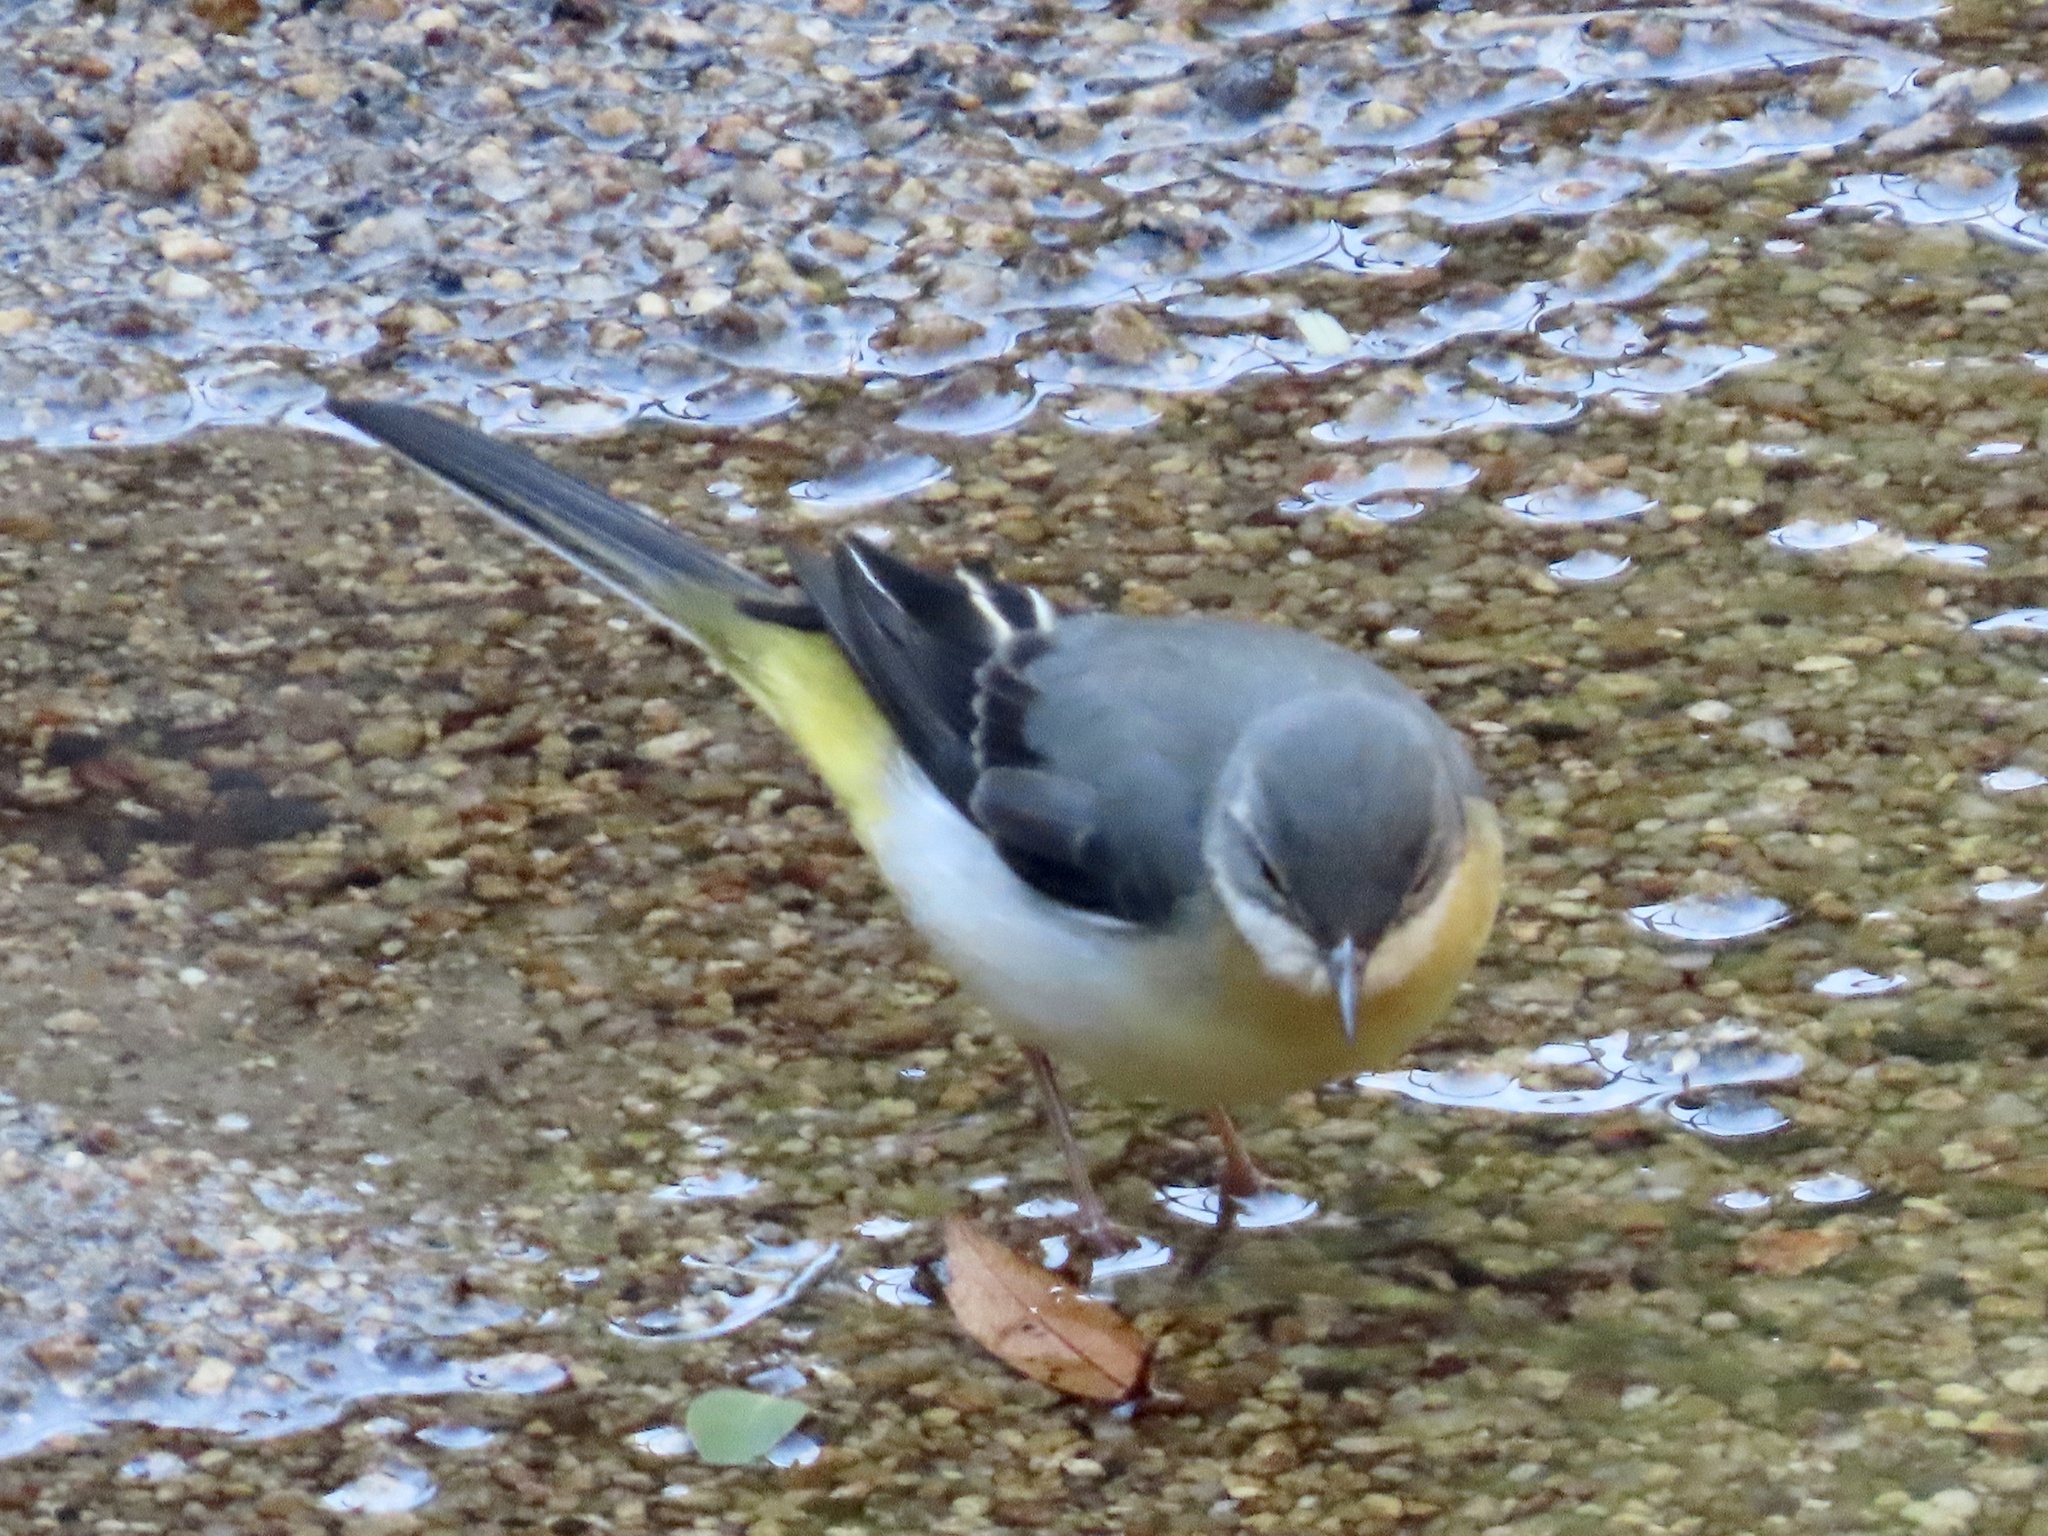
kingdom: Animalia
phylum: Chordata
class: Aves
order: Passeriformes
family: Motacillidae
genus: Motacilla
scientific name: Motacilla cinerea
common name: Grey wagtail
